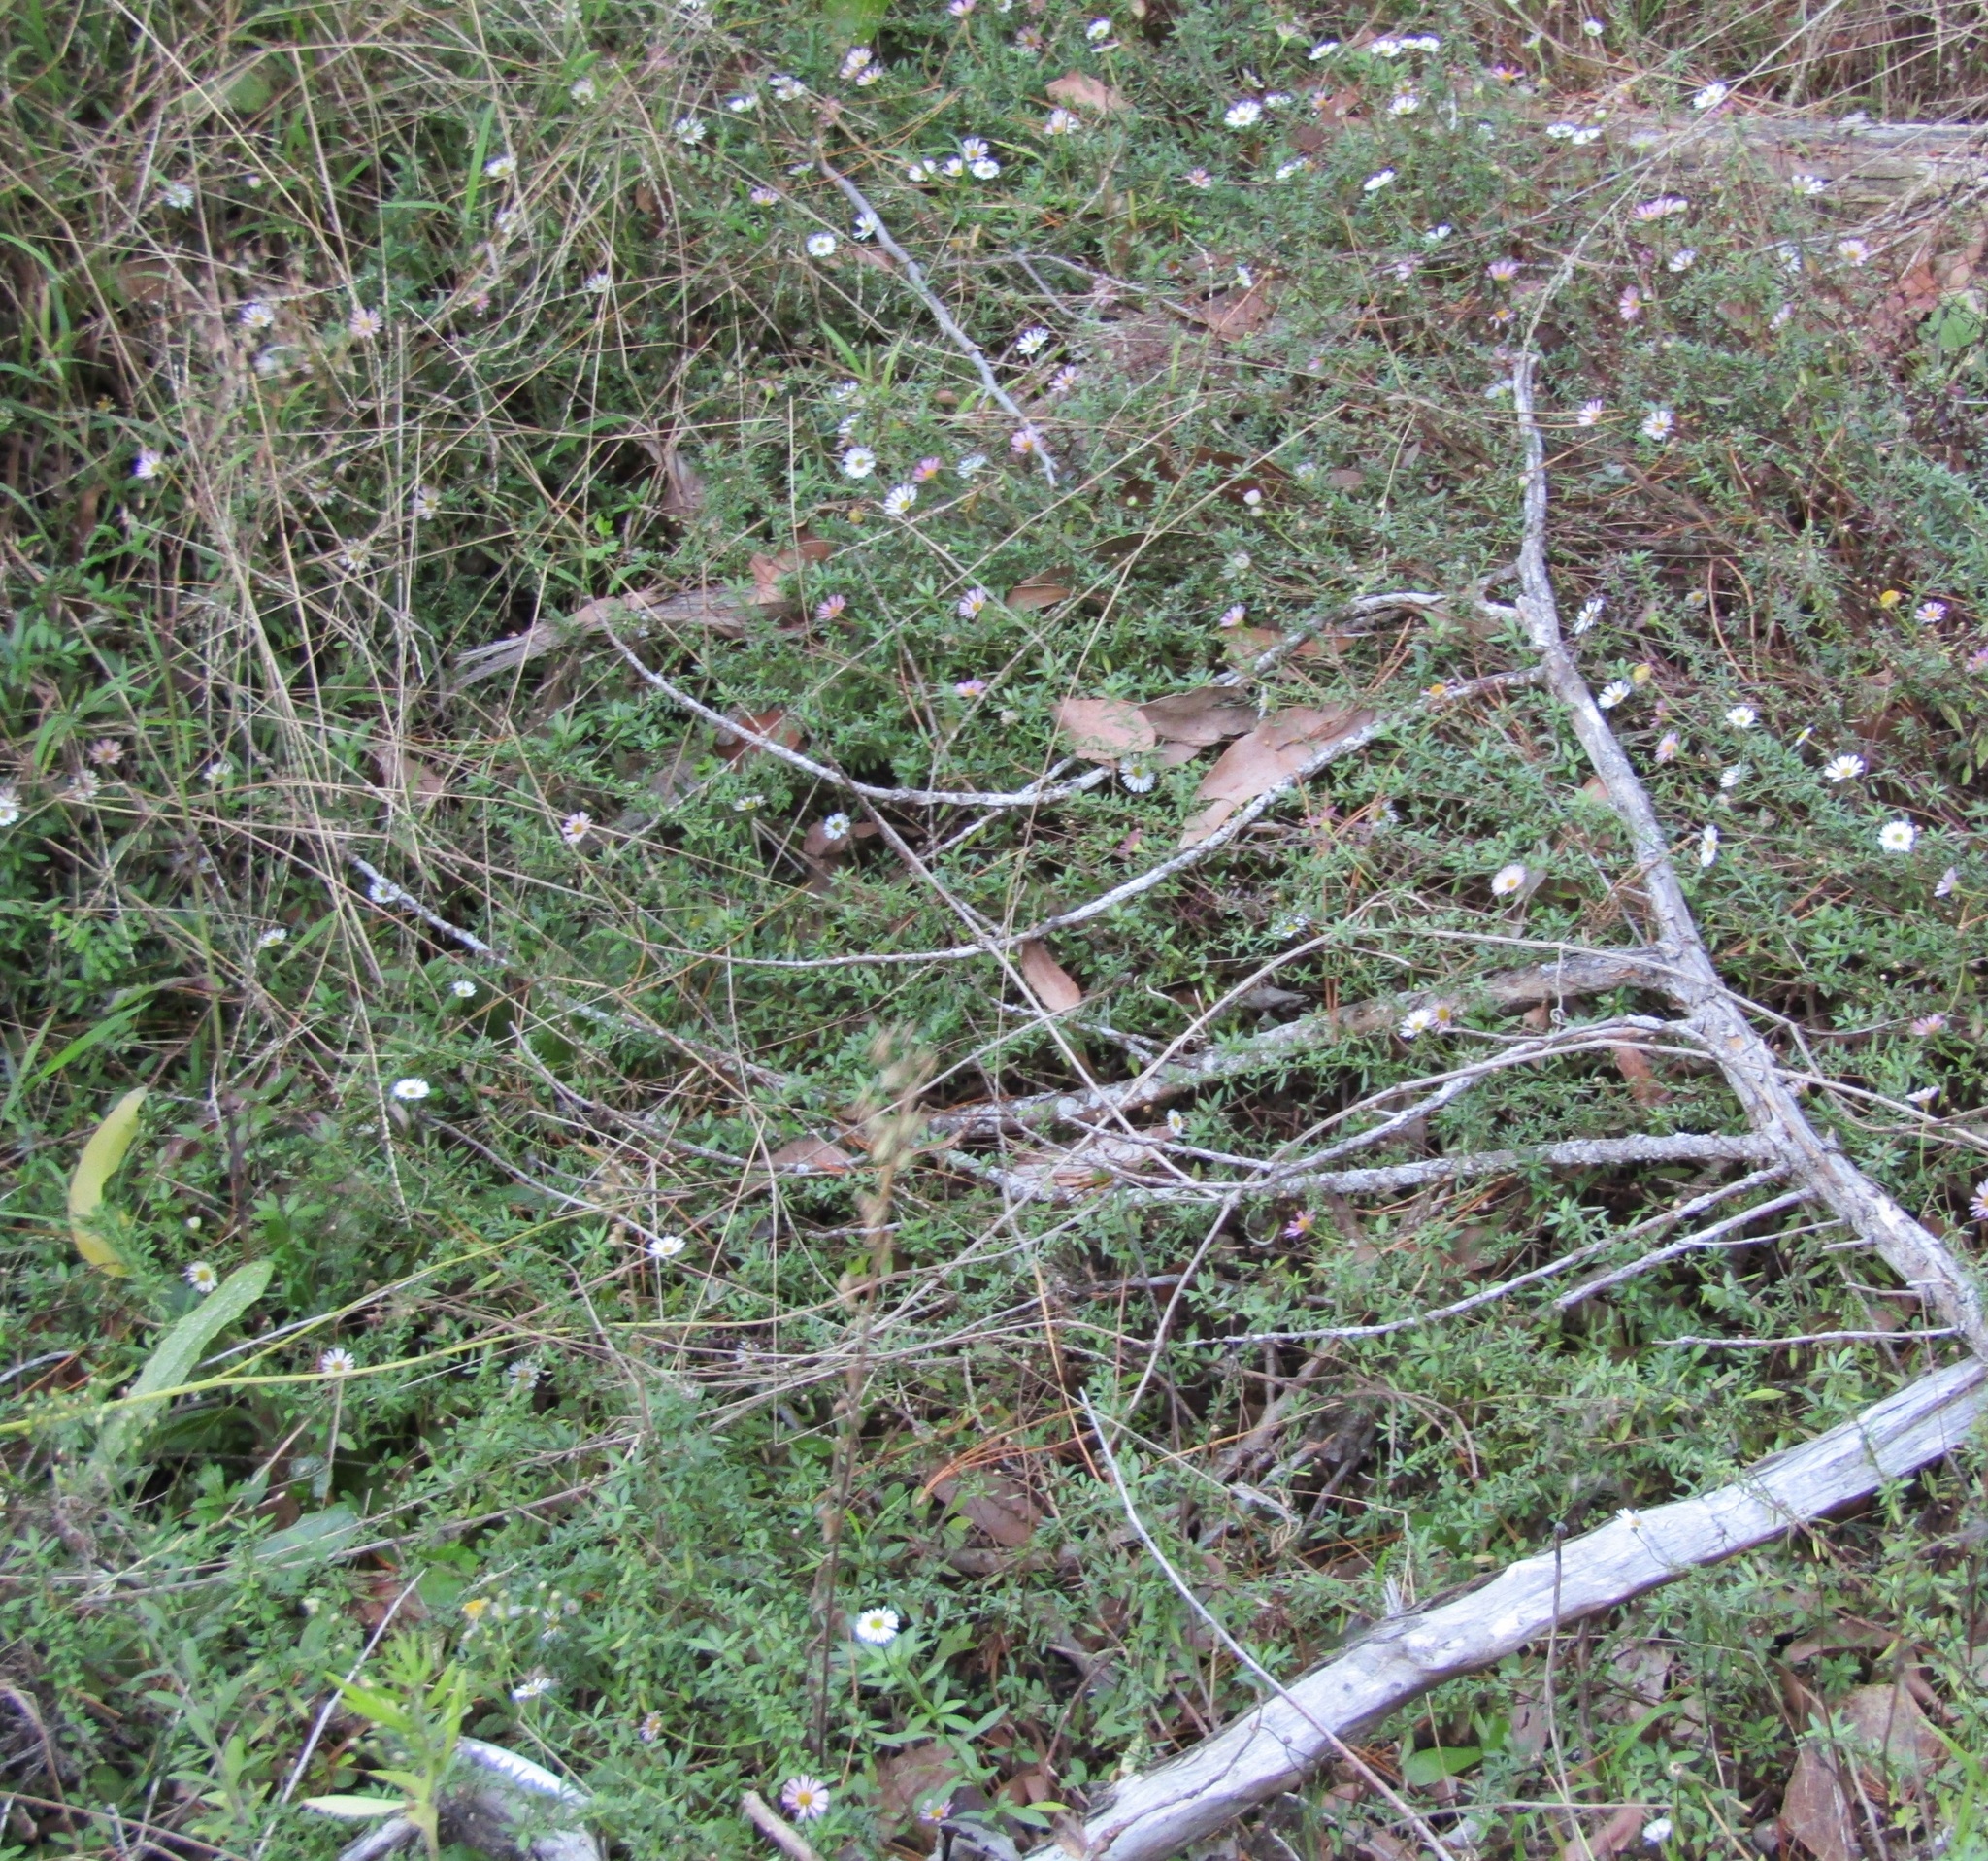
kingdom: Plantae
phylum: Tracheophyta
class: Magnoliopsida
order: Asterales
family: Asteraceae
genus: Erigeron
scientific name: Erigeron karvinskianus
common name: Mexican fleabane
